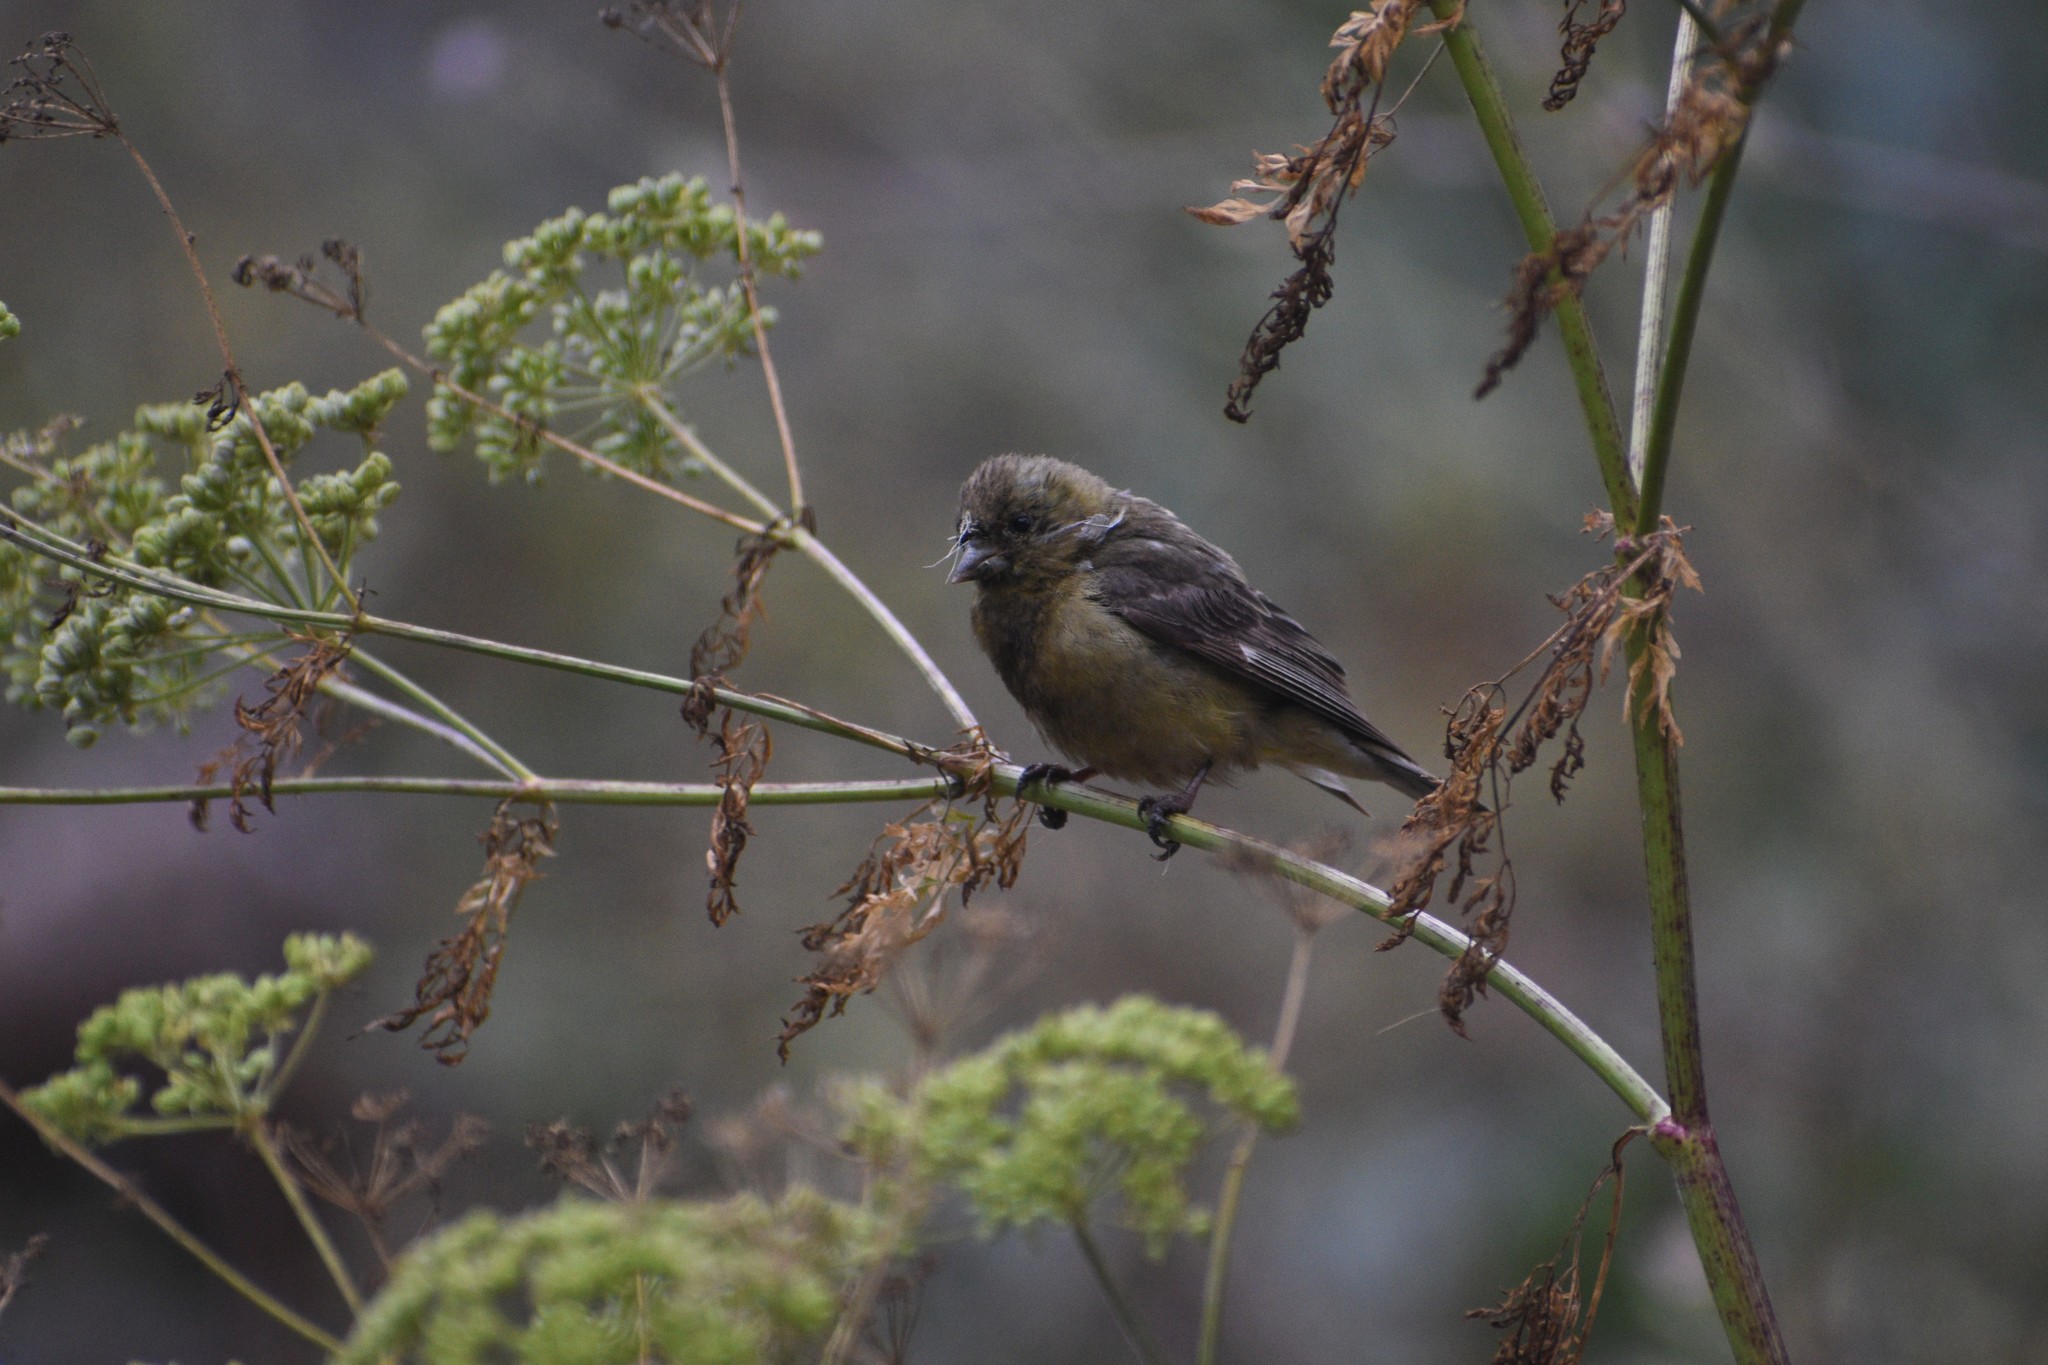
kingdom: Animalia
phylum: Chordata
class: Aves
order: Passeriformes
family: Fringillidae
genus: Spinus
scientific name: Spinus psaltria
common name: Lesser goldfinch
